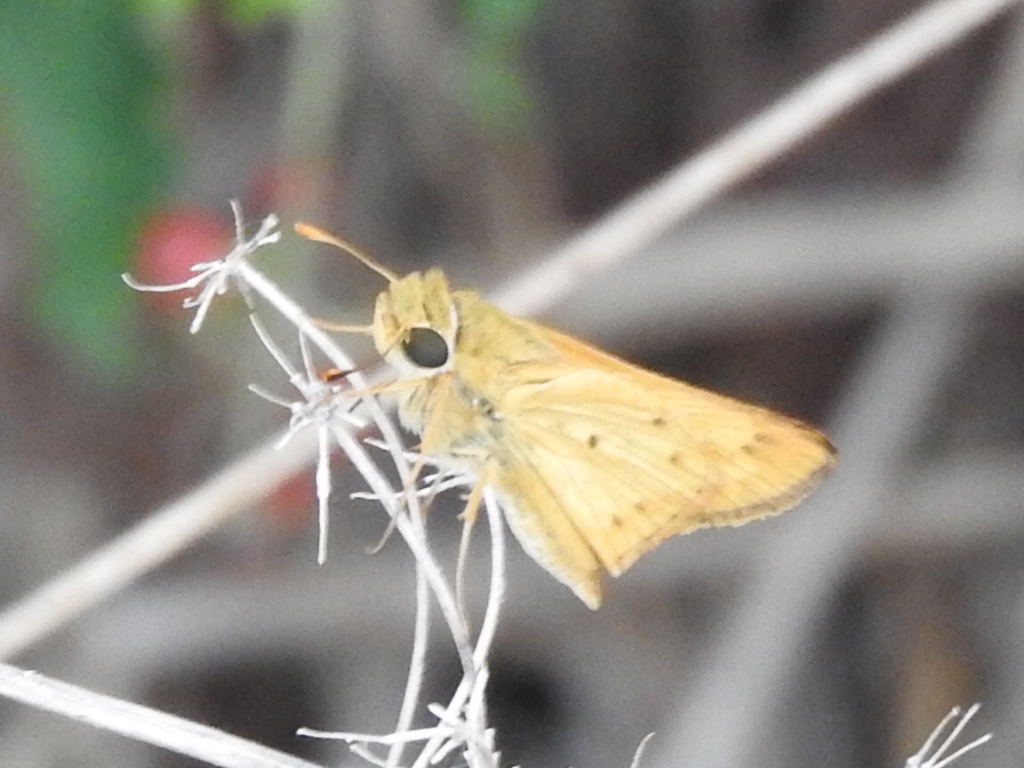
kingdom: Animalia
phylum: Arthropoda
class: Insecta
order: Lepidoptera
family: Hesperiidae
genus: Hylephila
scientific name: Hylephila phyleus
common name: Fiery skipper
